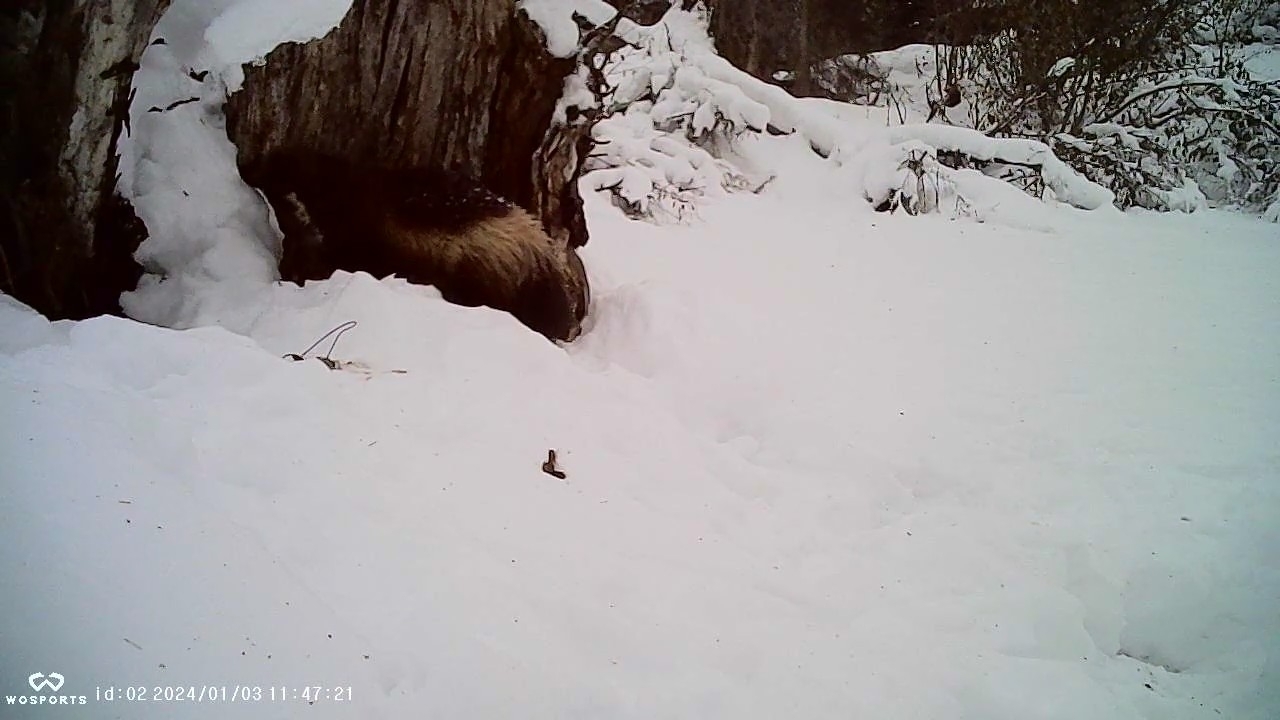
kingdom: Animalia
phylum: Chordata
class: Mammalia
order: Carnivora
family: Mustelidae
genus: Gulo
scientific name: Gulo gulo
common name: Wolverine
